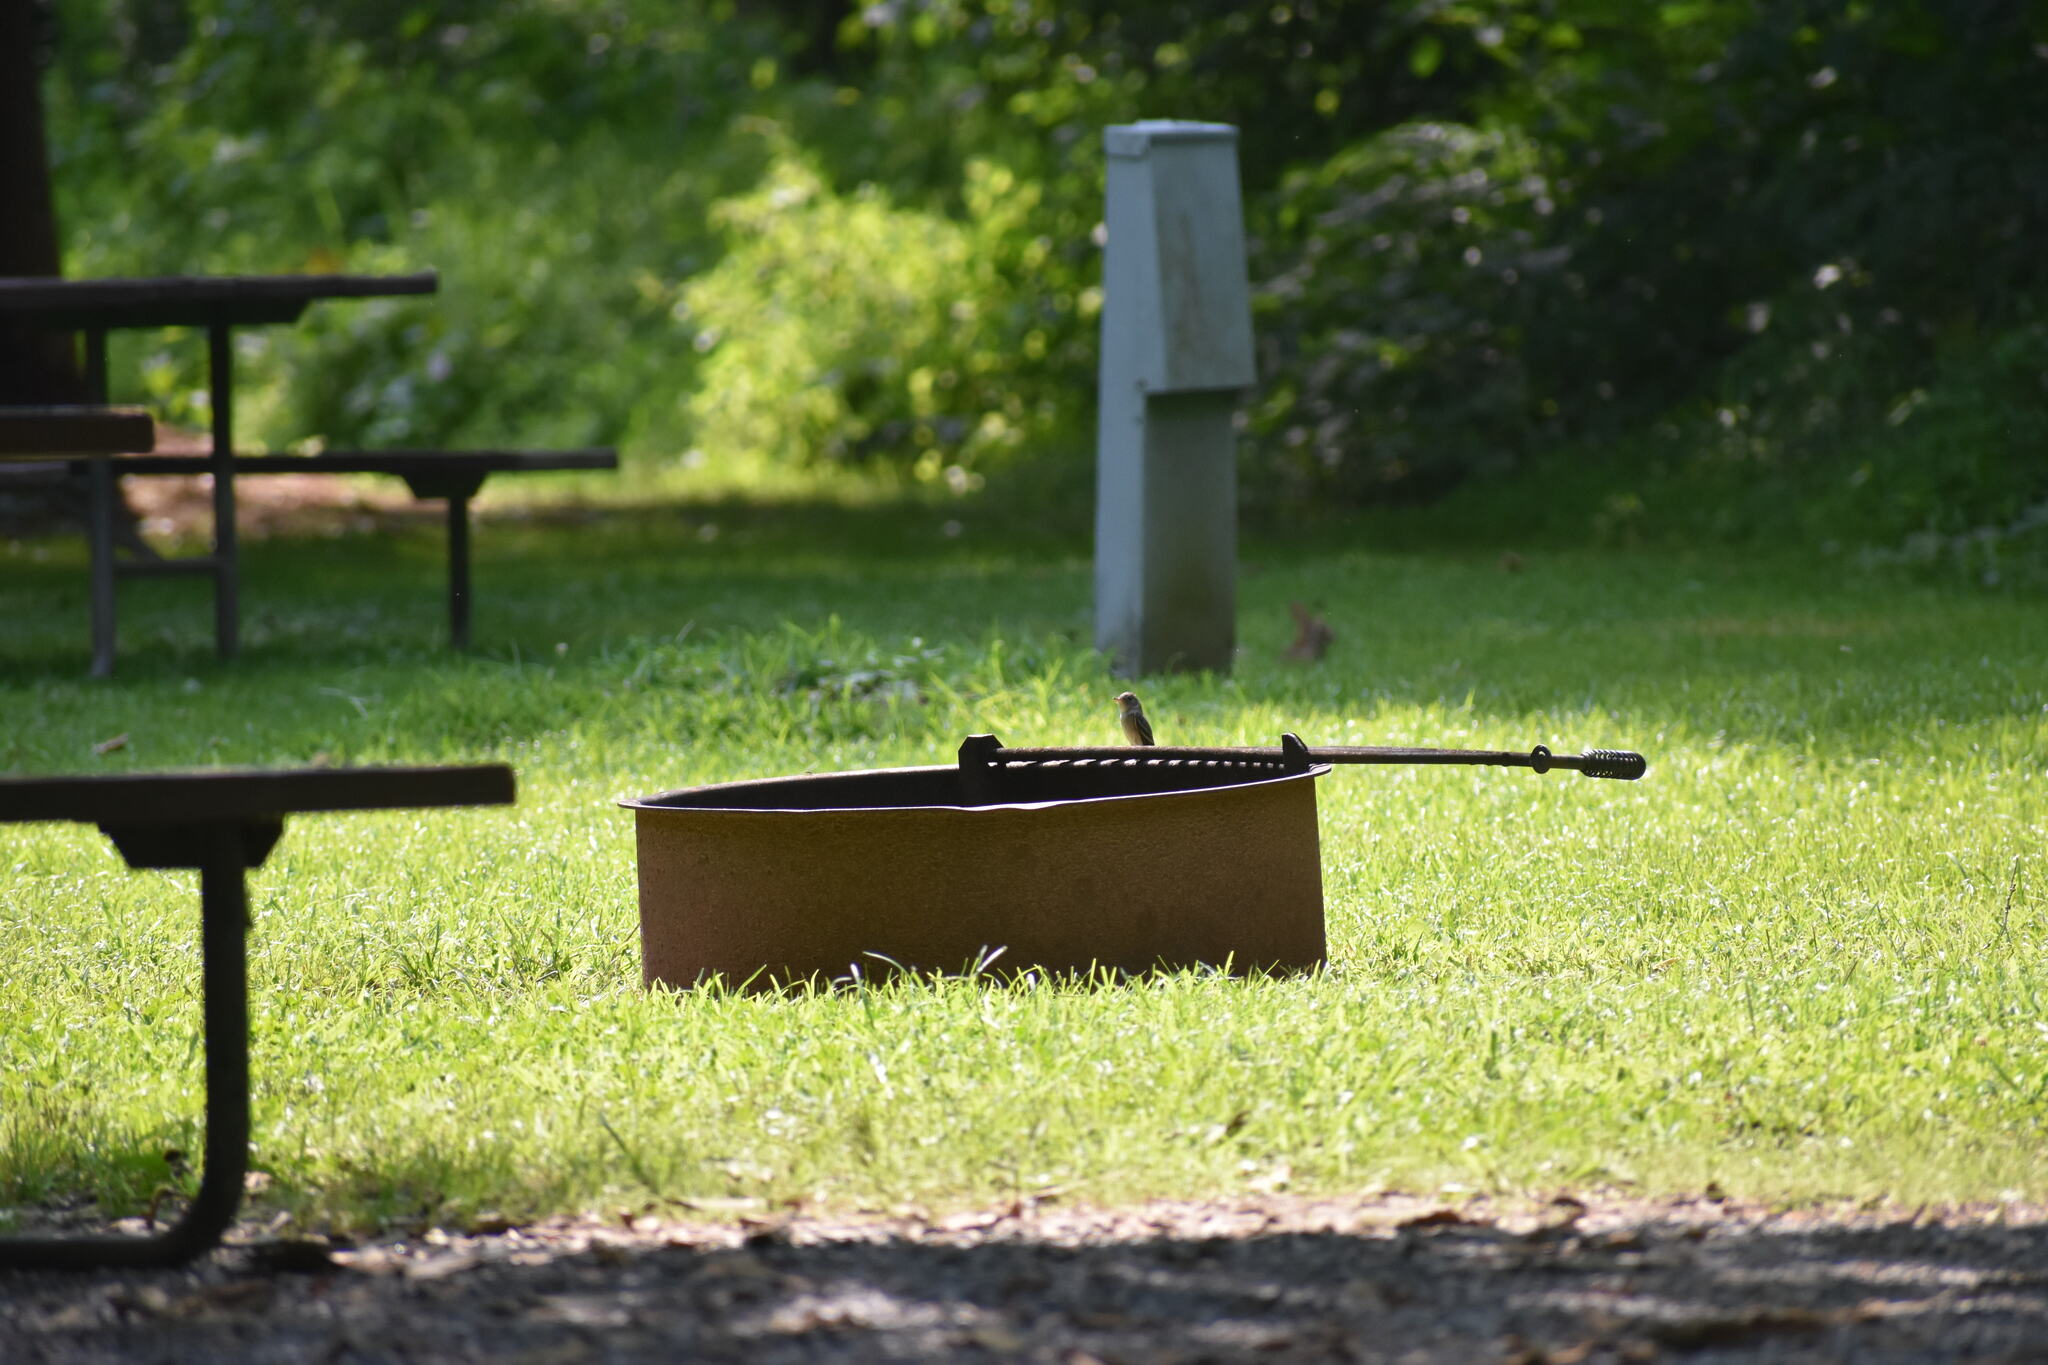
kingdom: Animalia
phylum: Chordata
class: Aves
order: Passeriformes
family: Tyrannidae
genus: Contopus
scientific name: Contopus virens
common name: Eastern wood-pewee
